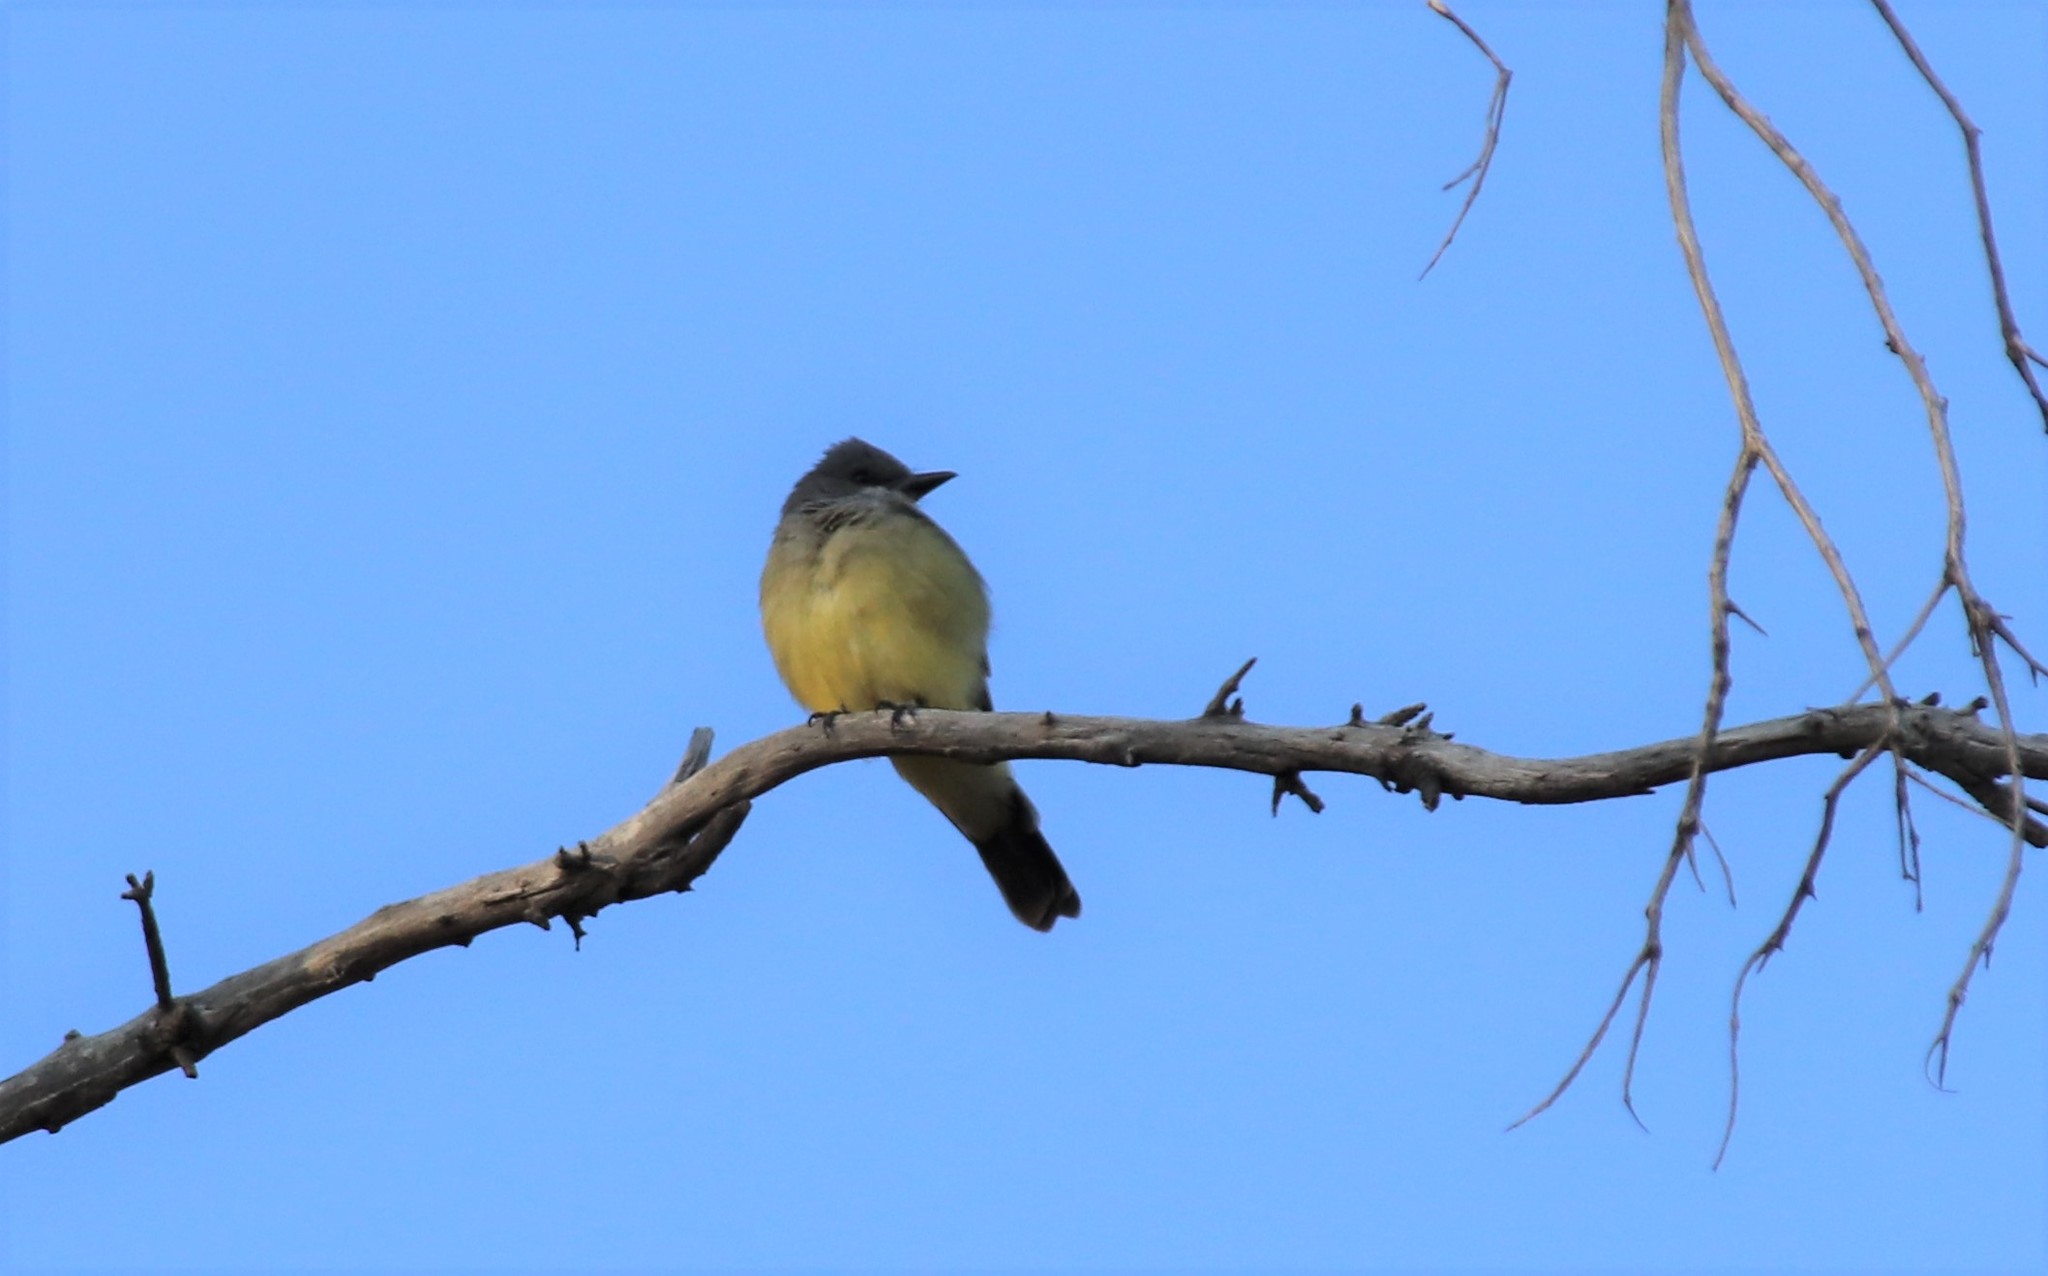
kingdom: Animalia
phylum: Chordata
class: Aves
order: Passeriformes
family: Tyrannidae
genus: Tyrannus
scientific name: Tyrannus vociferans
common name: Cassin's kingbird
